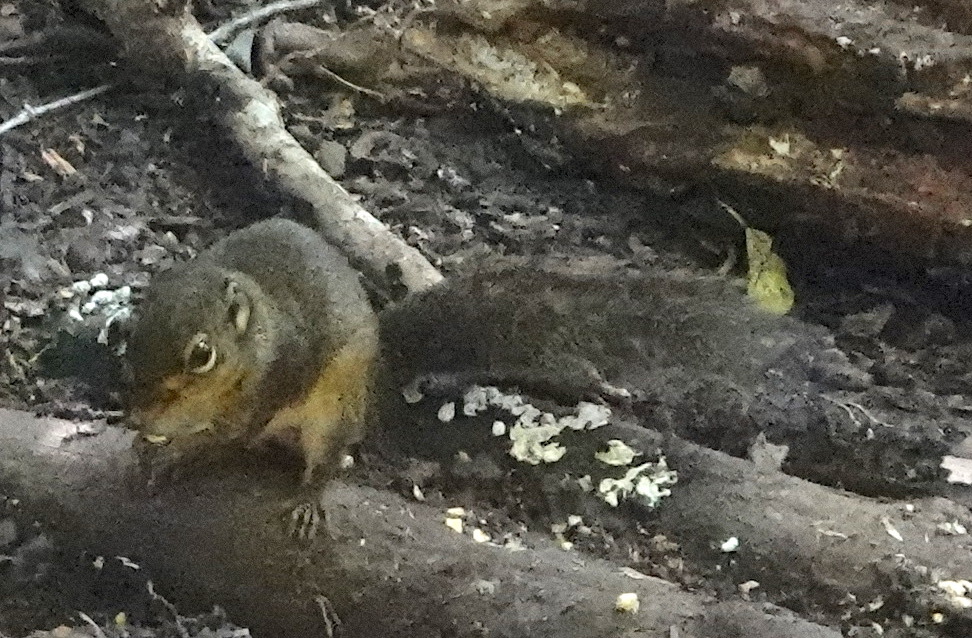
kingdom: Animalia
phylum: Chordata
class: Mammalia
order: Rodentia
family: Sciuridae
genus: Sundasciurus
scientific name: Sundasciurus lowii
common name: Low's squirrel
